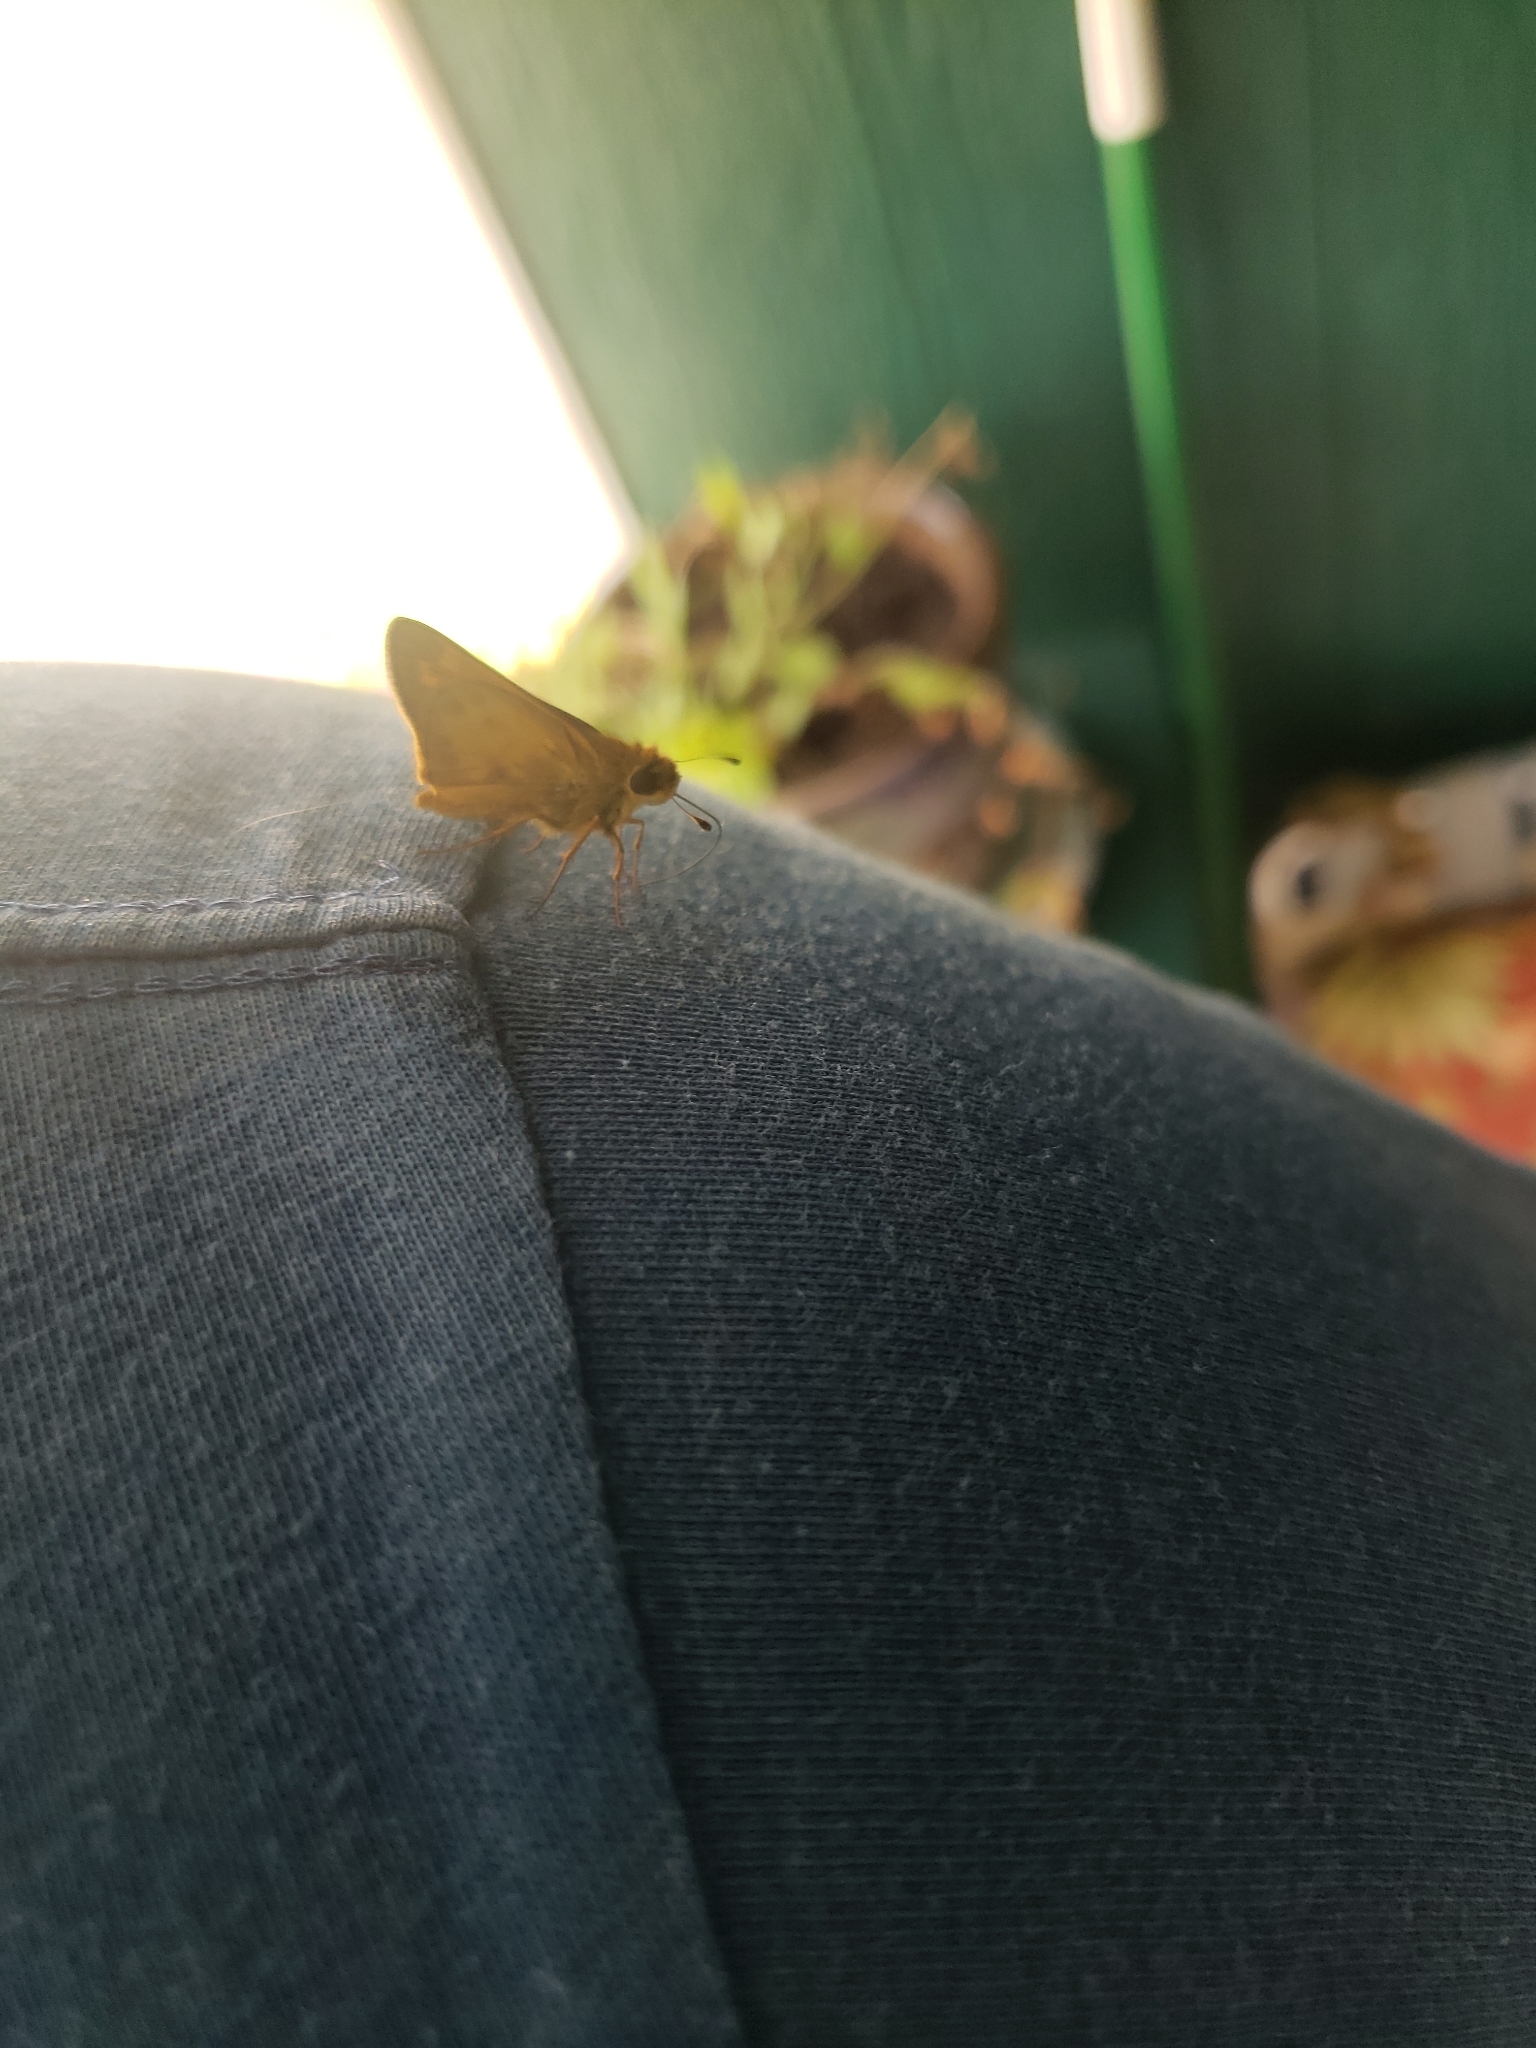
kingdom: Animalia
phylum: Arthropoda
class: Insecta
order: Lepidoptera
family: Hesperiidae
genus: Atalopedes
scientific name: Atalopedes
